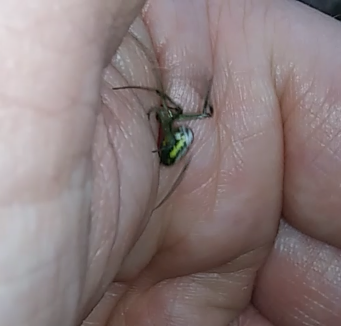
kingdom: Animalia
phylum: Arthropoda
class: Arachnida
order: Araneae
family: Tetragnathidae
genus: Leucauge
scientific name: Leucauge venusta
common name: Longjawed orb weavers
